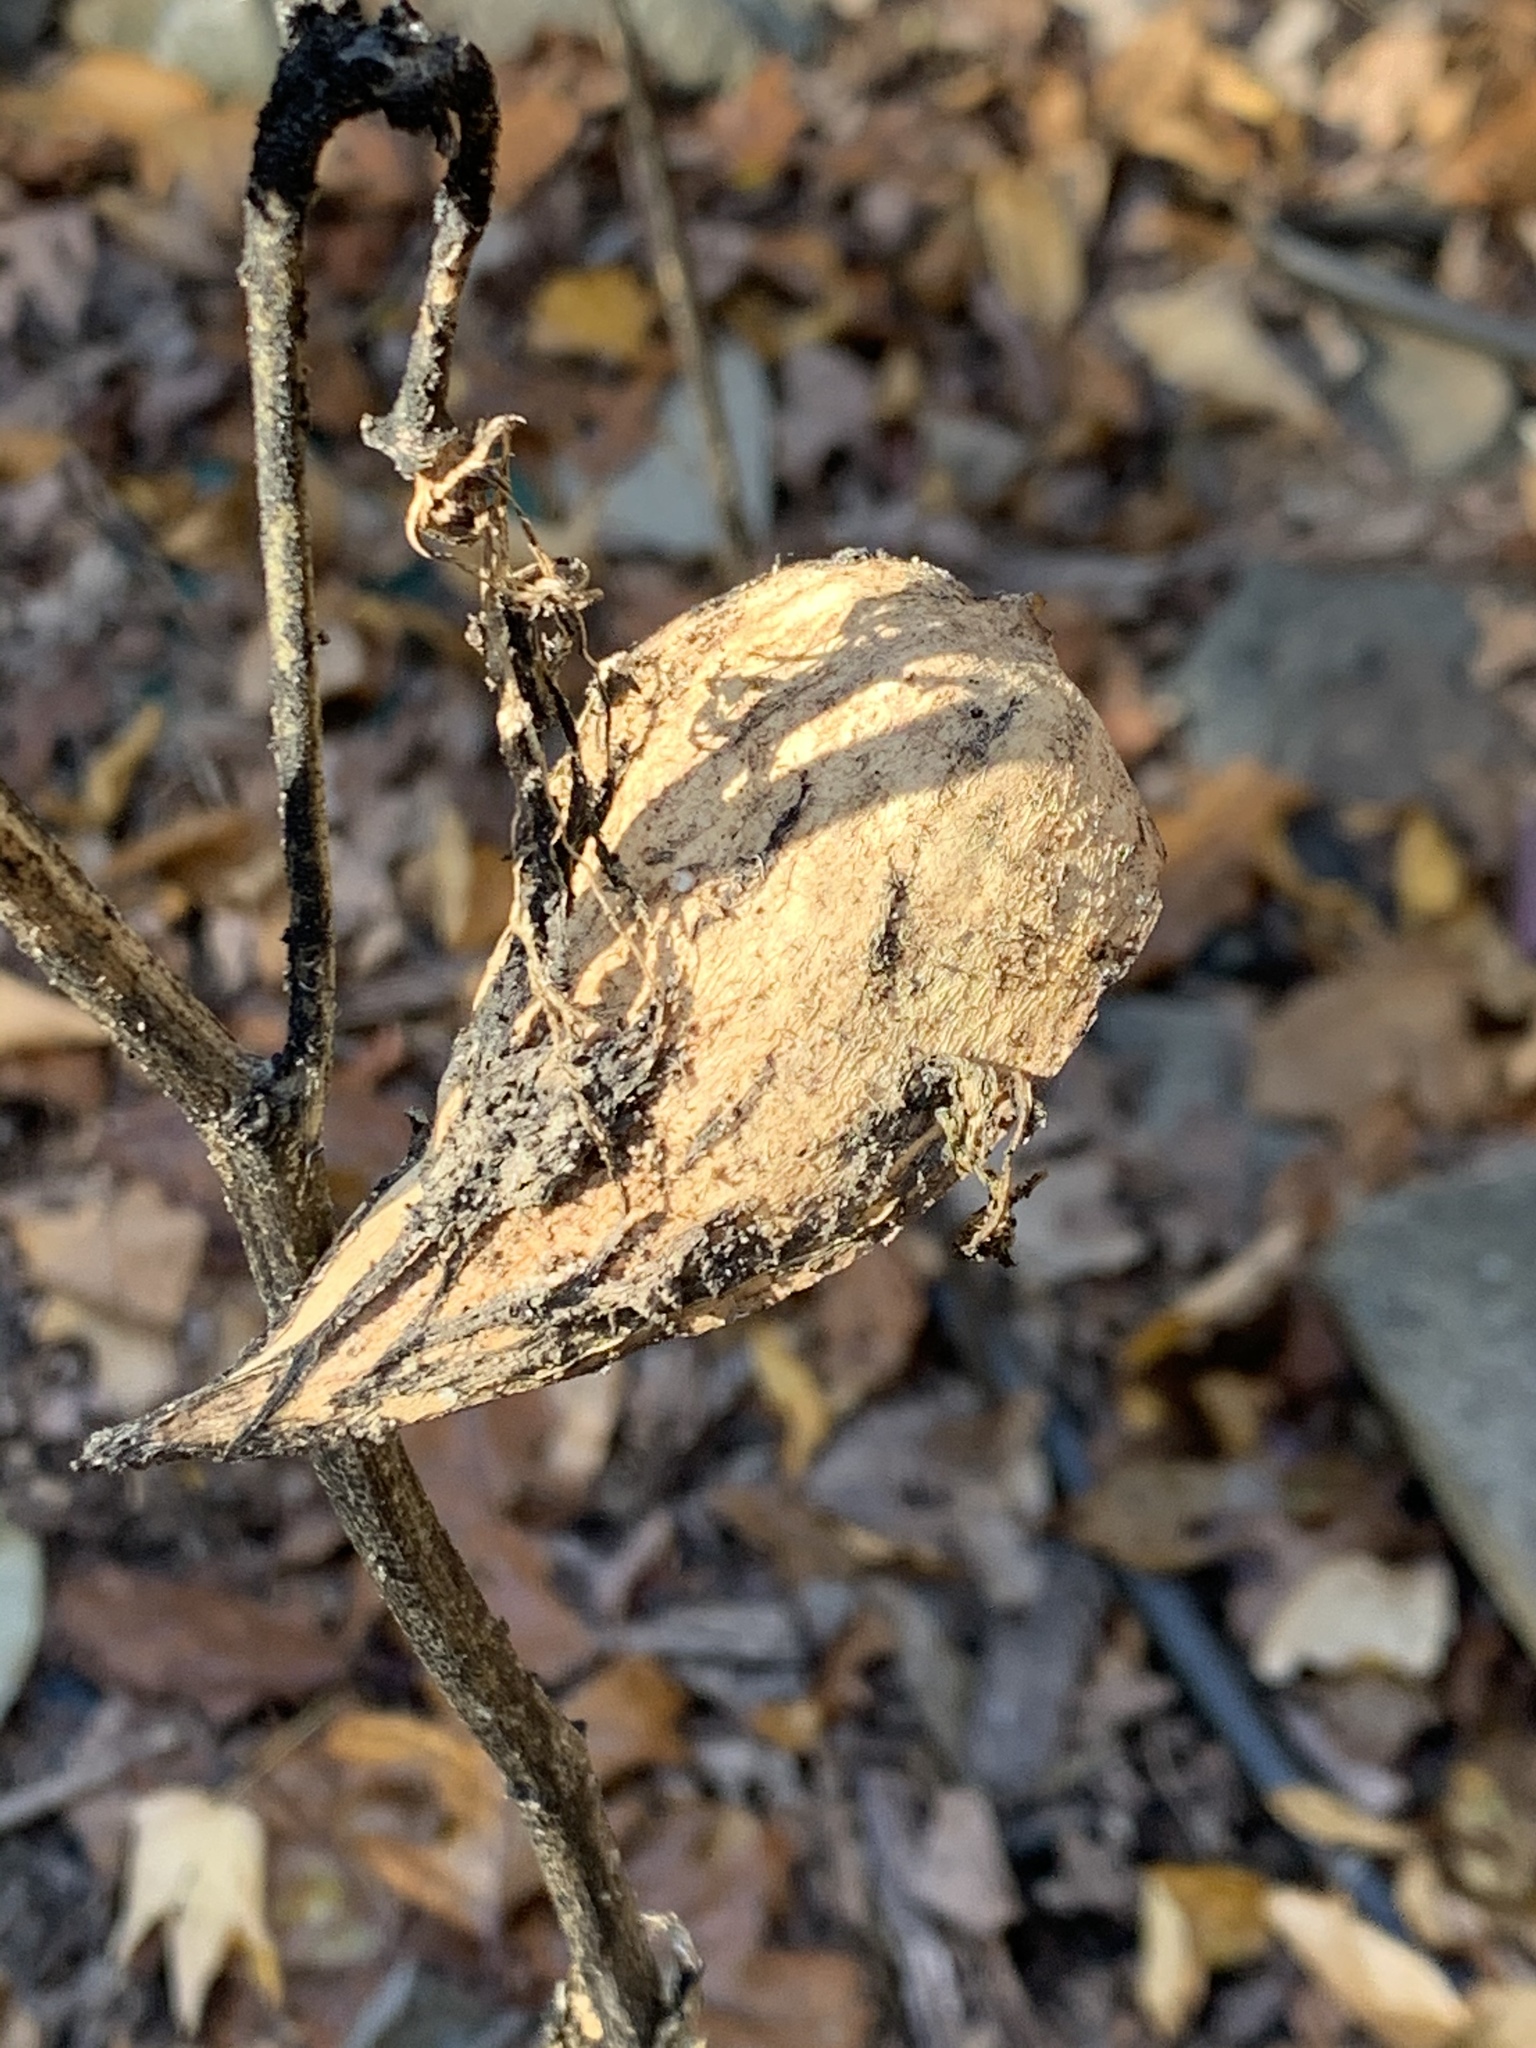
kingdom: Plantae
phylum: Tracheophyta
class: Magnoliopsida
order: Gentianales
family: Apocynaceae
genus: Asclepias
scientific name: Asclepias syriaca
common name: Common milkweed
